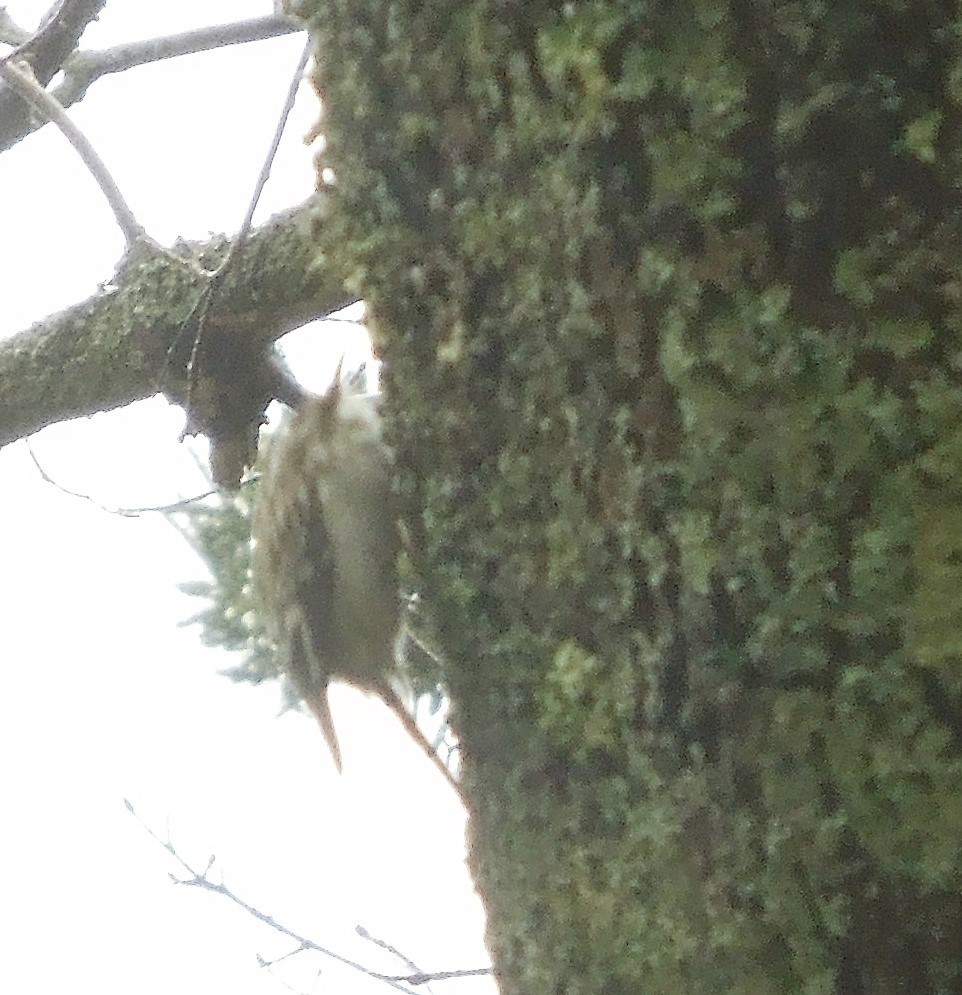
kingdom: Animalia
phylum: Chordata
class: Aves
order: Passeriformes
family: Certhiidae
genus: Certhia
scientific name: Certhia americana
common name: Brown creeper
